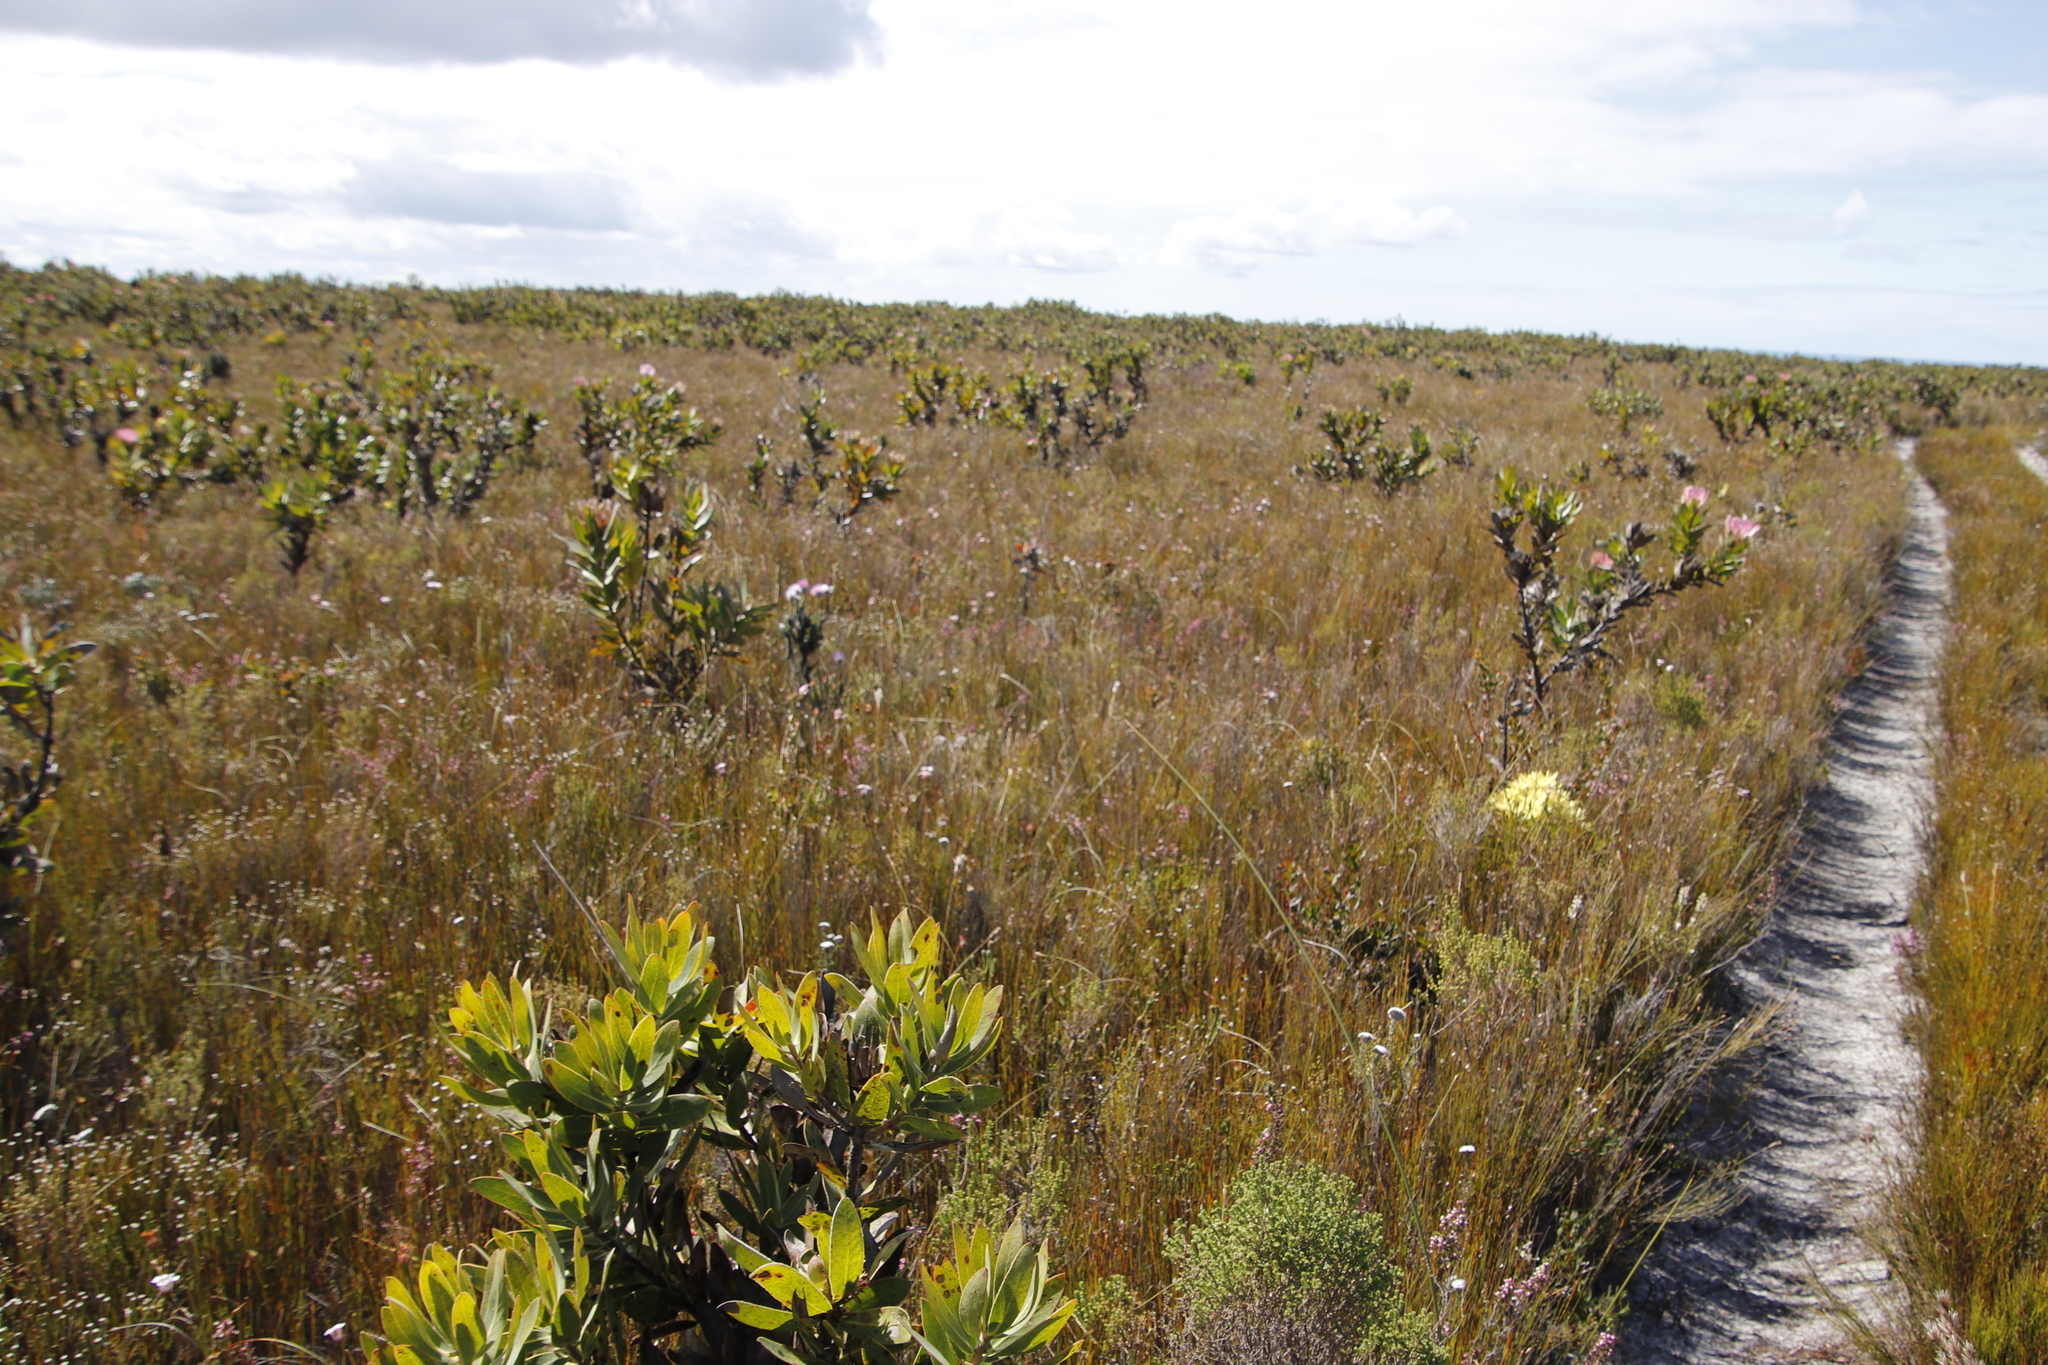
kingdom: Plantae
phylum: Tracheophyta
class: Magnoliopsida
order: Ericales
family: Ericaceae
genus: Erica
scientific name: Erica fascicularis
